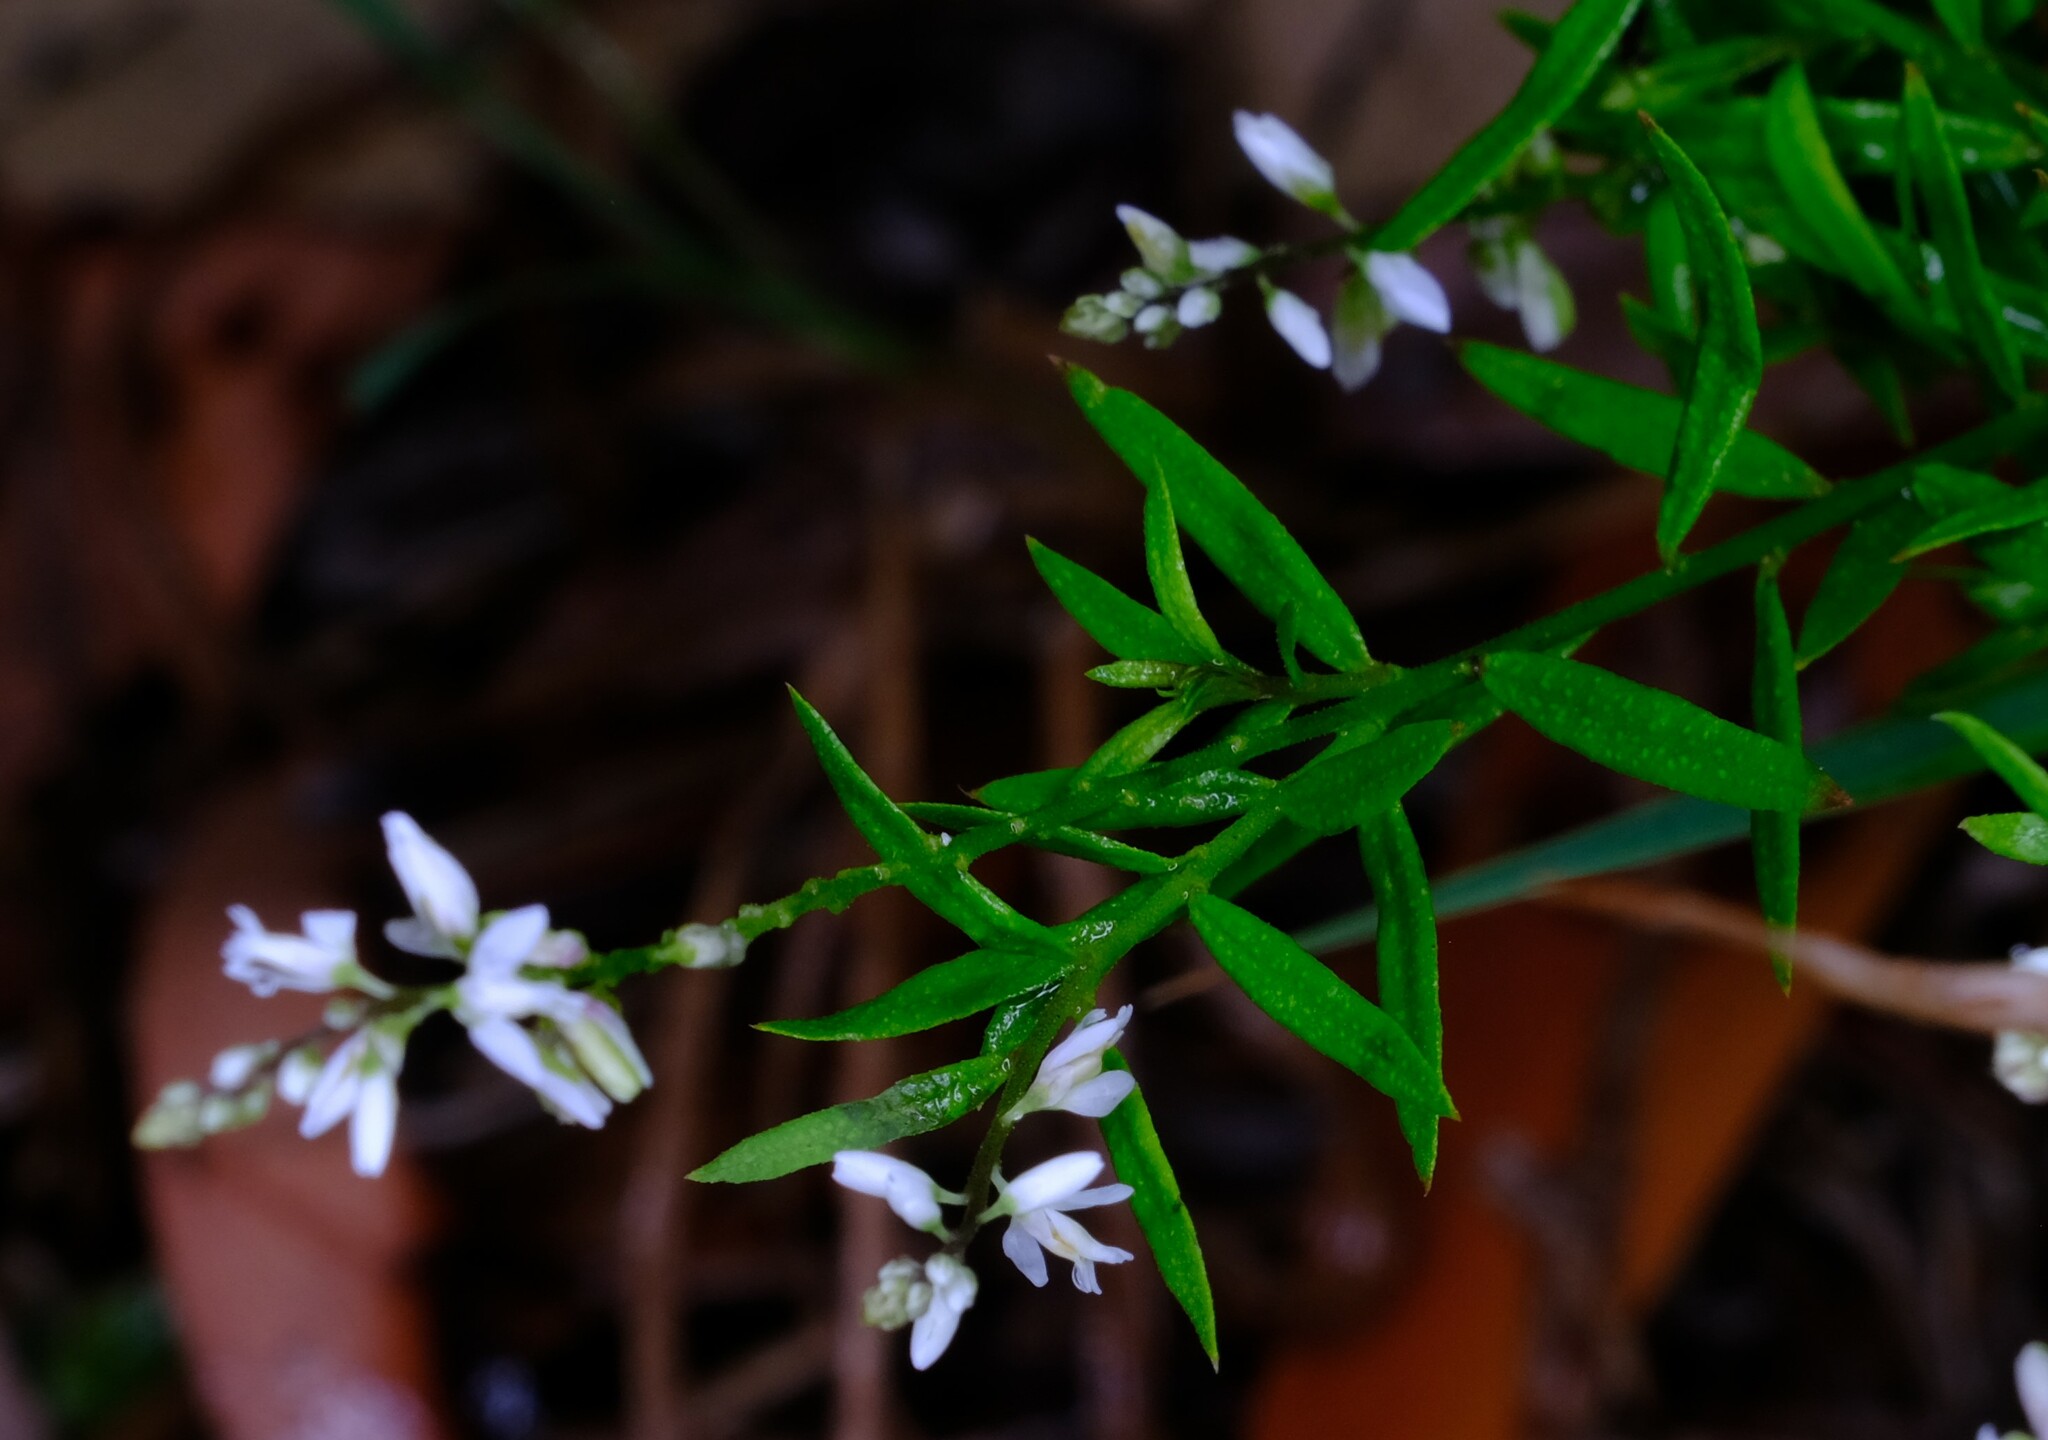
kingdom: Plantae
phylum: Tracheophyta
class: Magnoliopsida
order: Fabales
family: Polygalaceae
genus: Polygala
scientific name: Polygala paniculata
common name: Orosne
